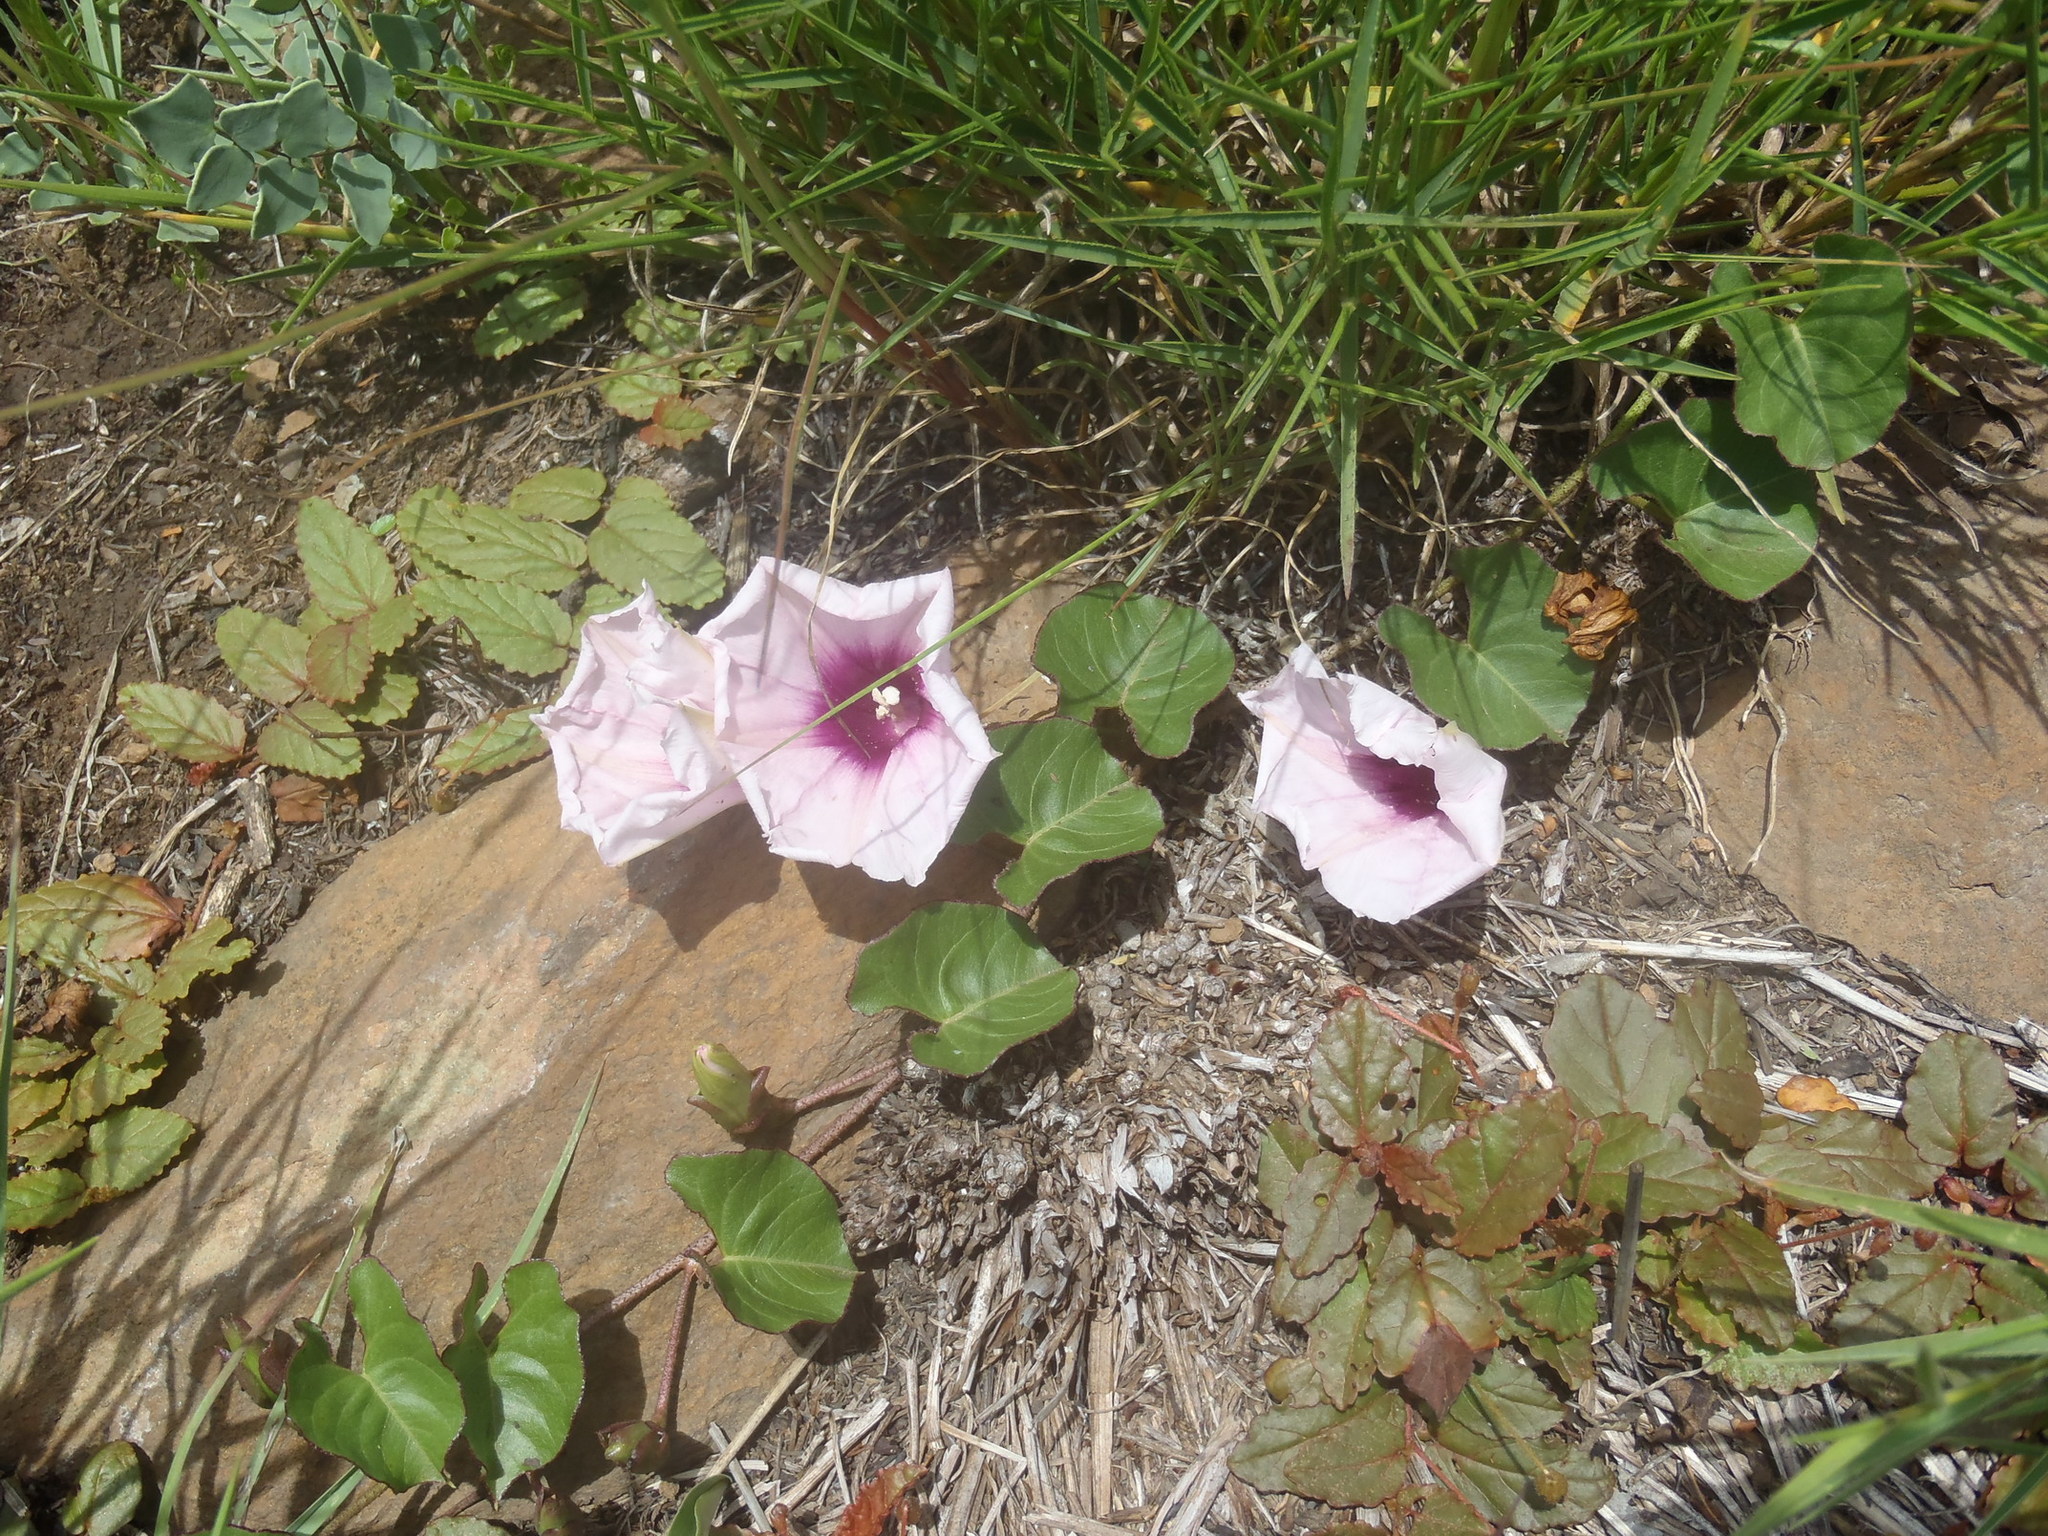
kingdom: Plantae
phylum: Tracheophyta
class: Magnoliopsida
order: Solanales
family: Convolvulaceae
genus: Ipomoea
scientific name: Ipomoea bathycolpos
